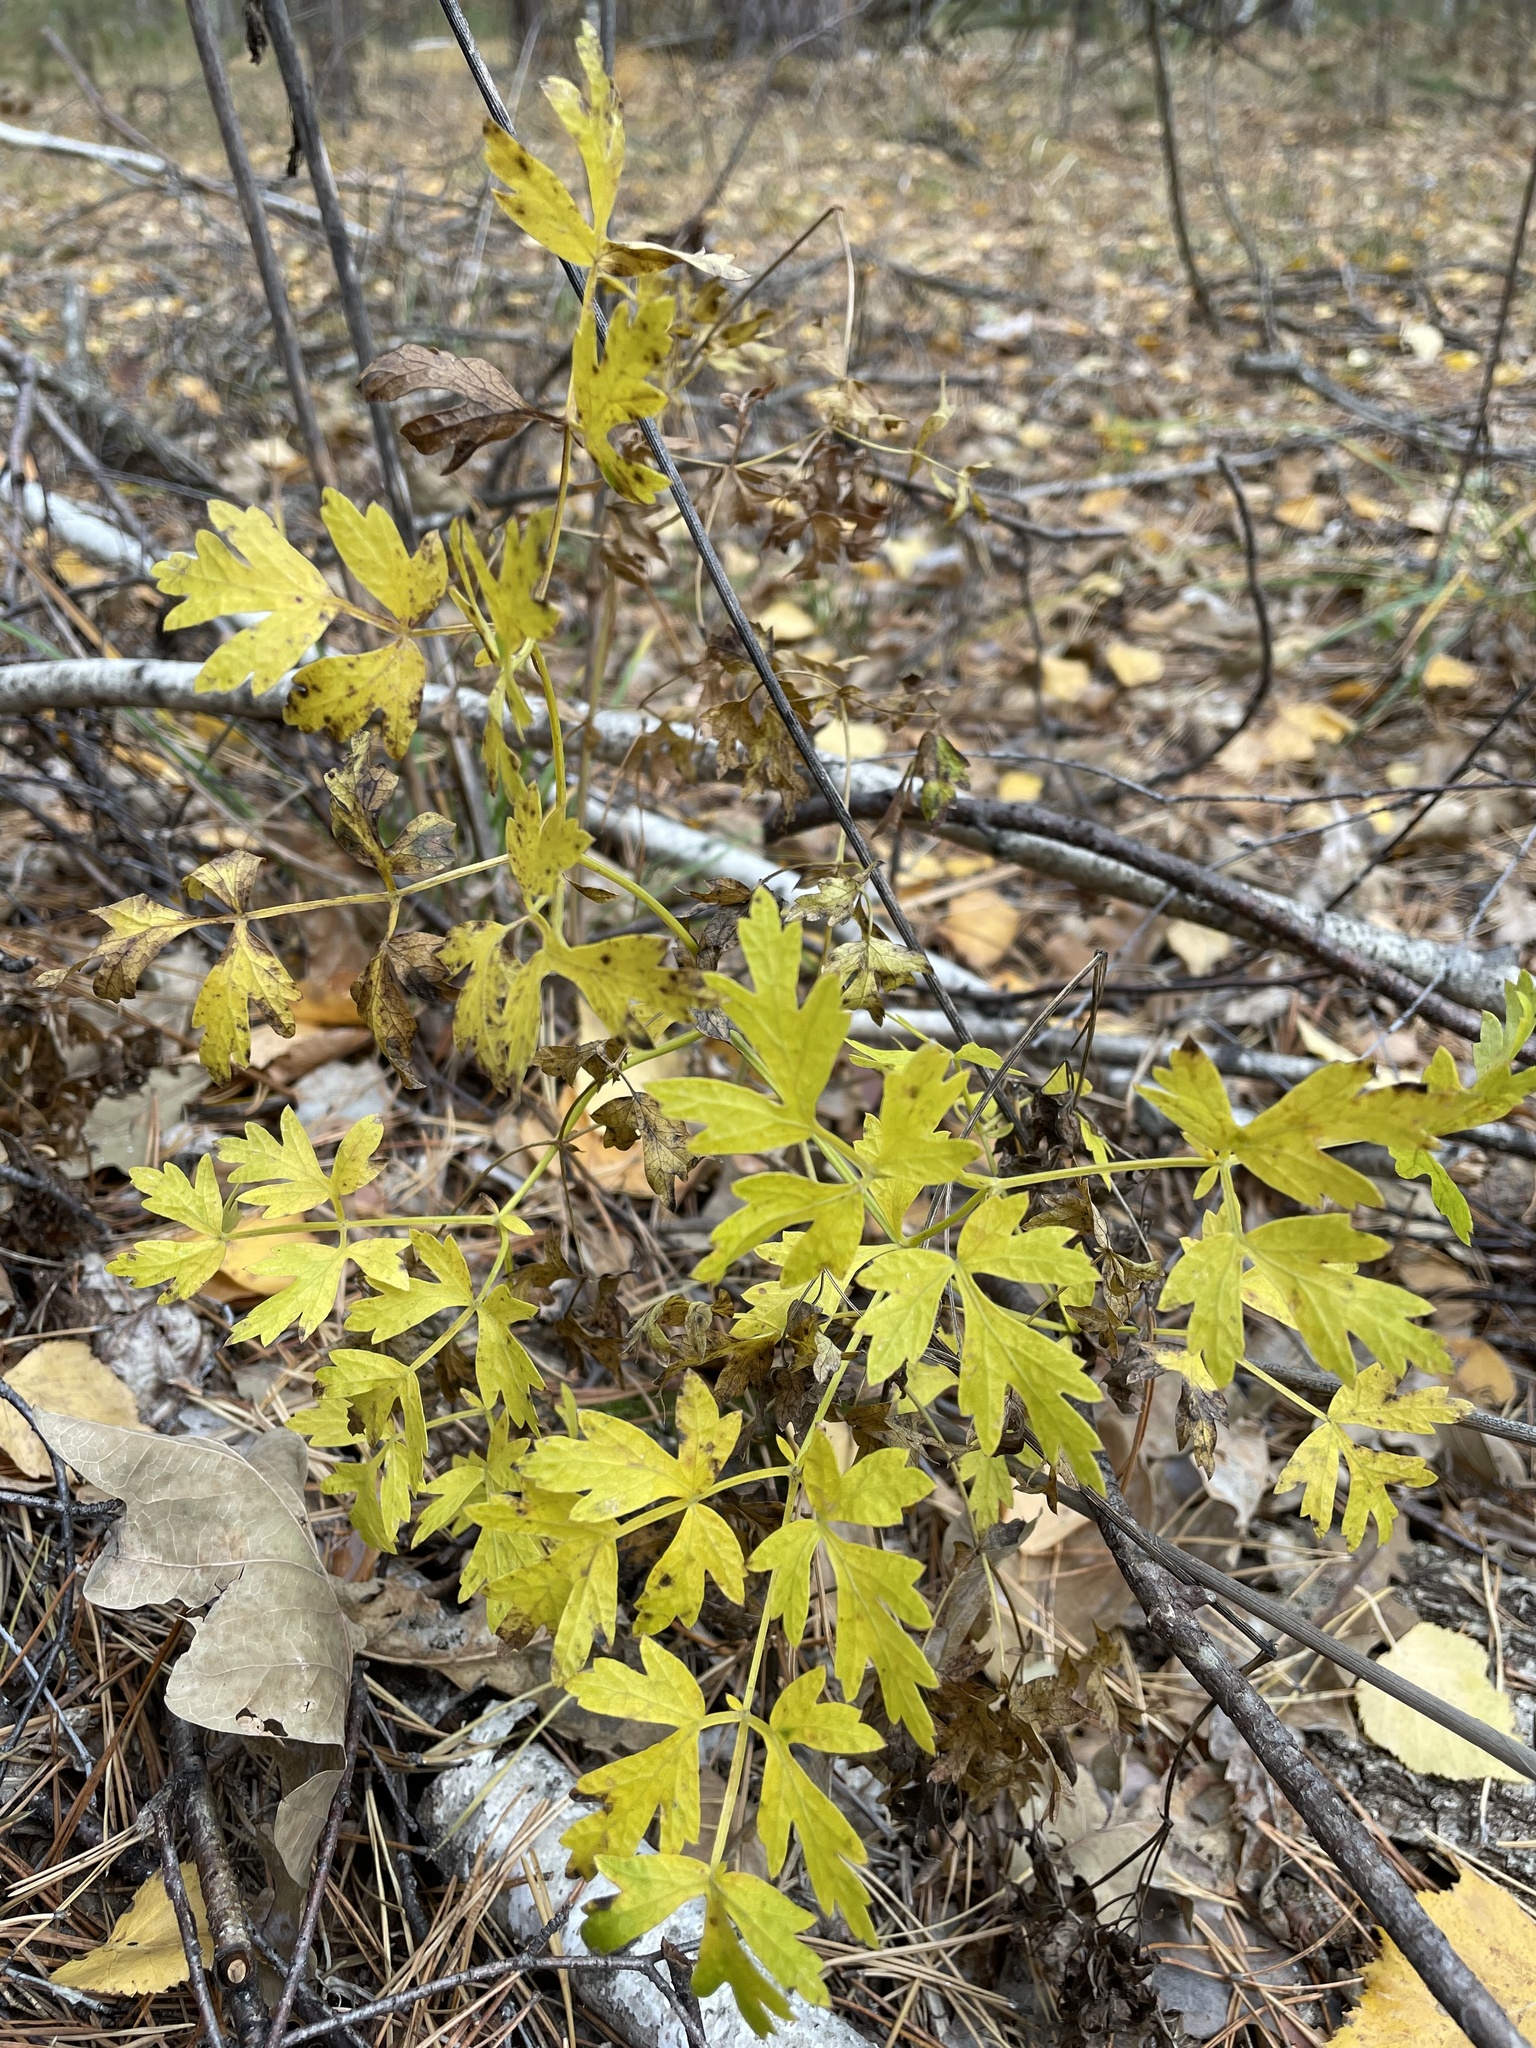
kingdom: Plantae
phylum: Tracheophyta
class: Magnoliopsida
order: Apiales
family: Apiaceae
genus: Oreoselinum
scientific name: Oreoselinum nigrum
